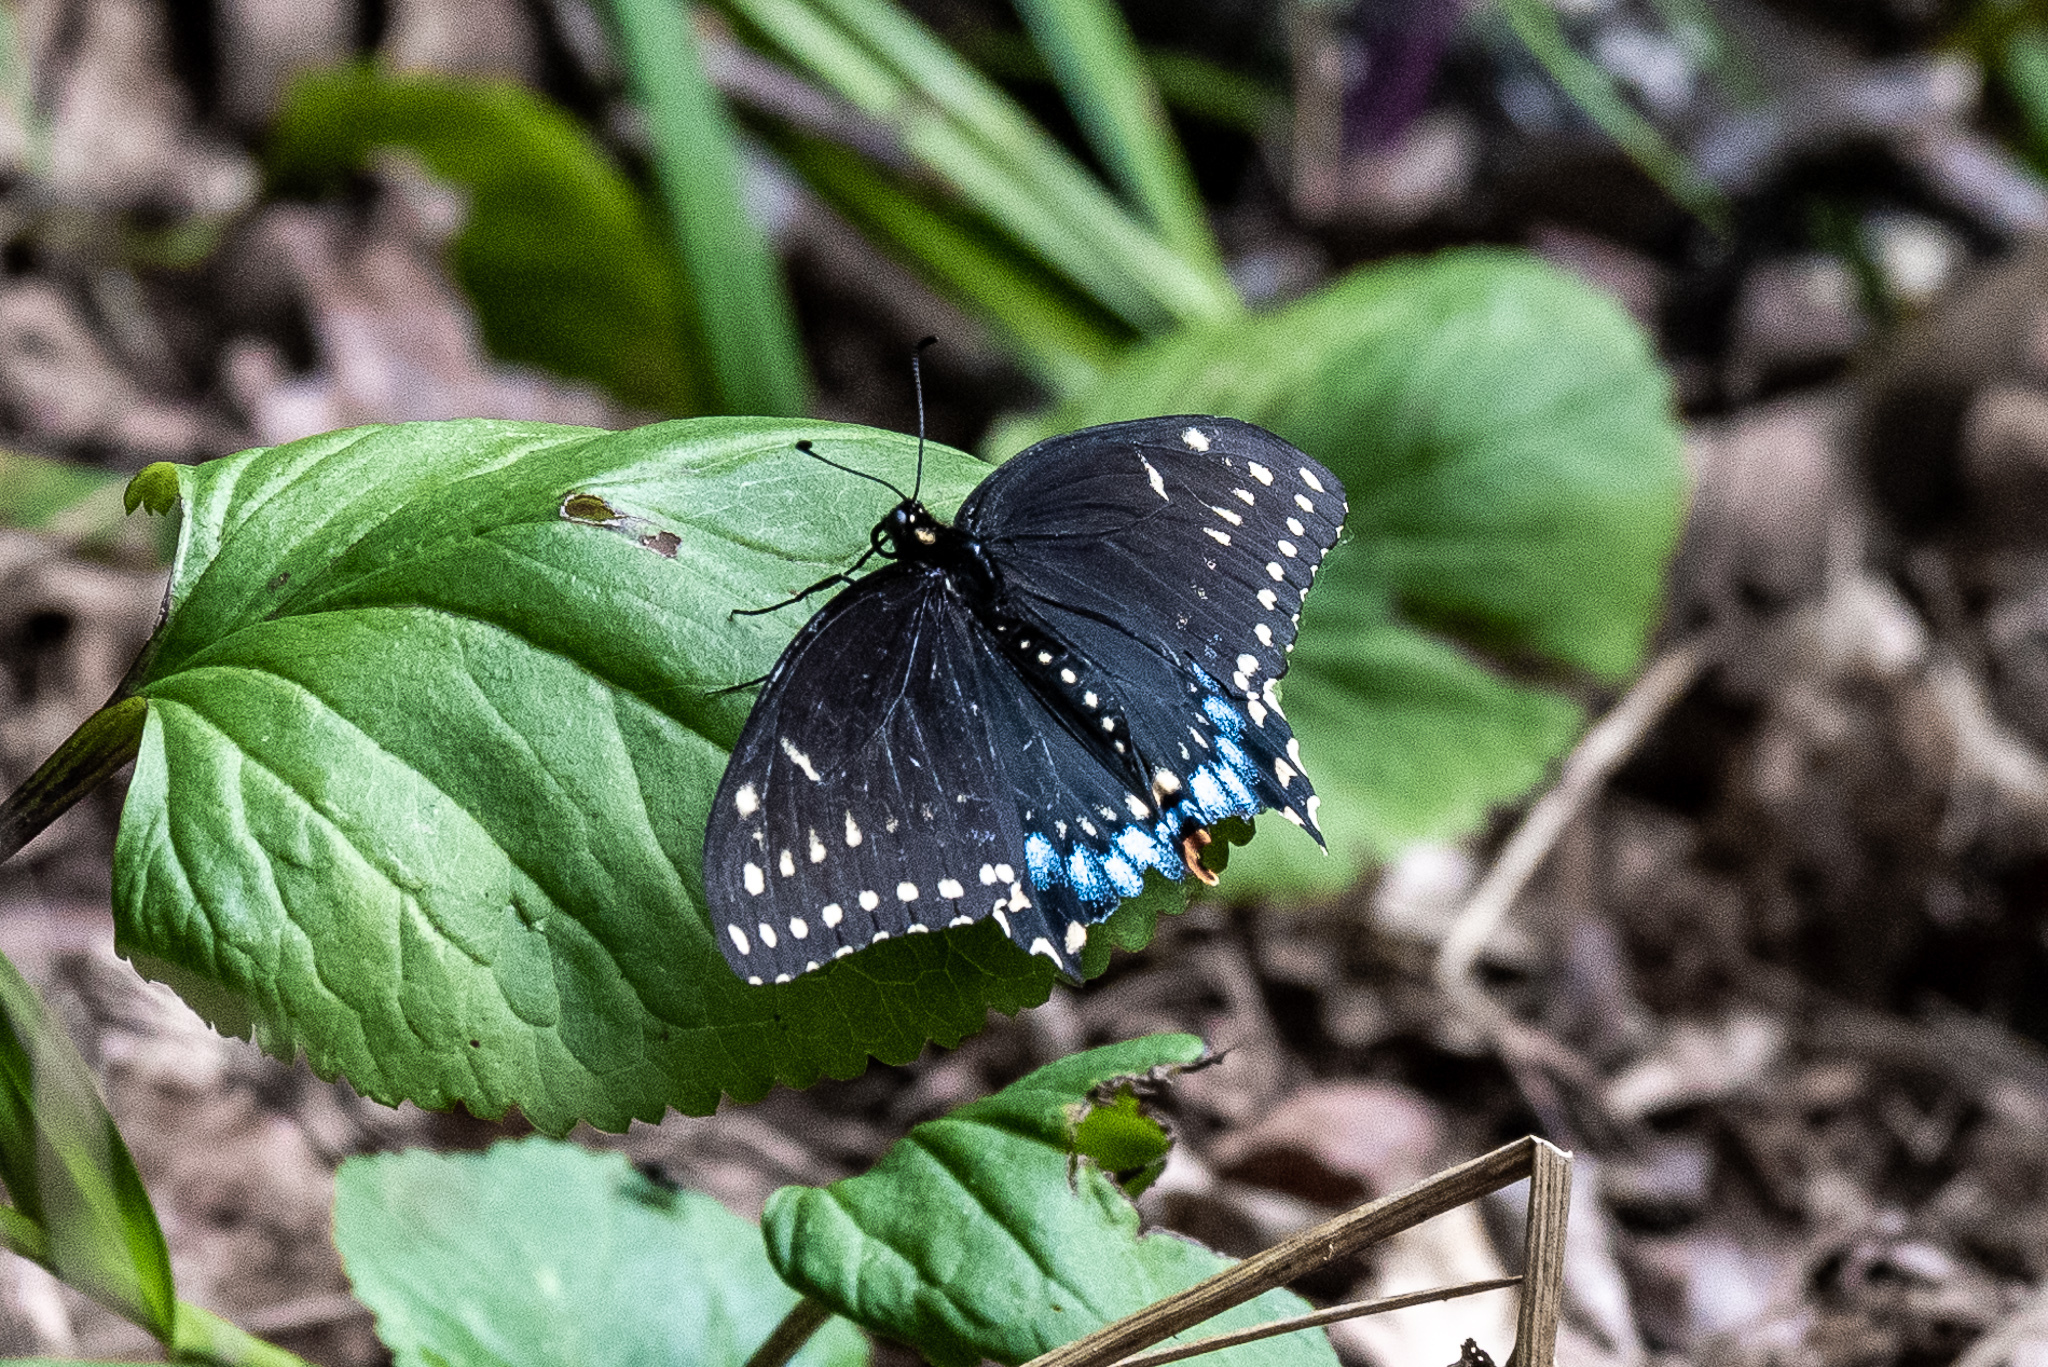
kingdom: Animalia
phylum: Arthropoda
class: Insecta
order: Lepidoptera
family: Papilionidae
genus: Papilio
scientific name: Papilio polyxenes
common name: Black swallowtail
